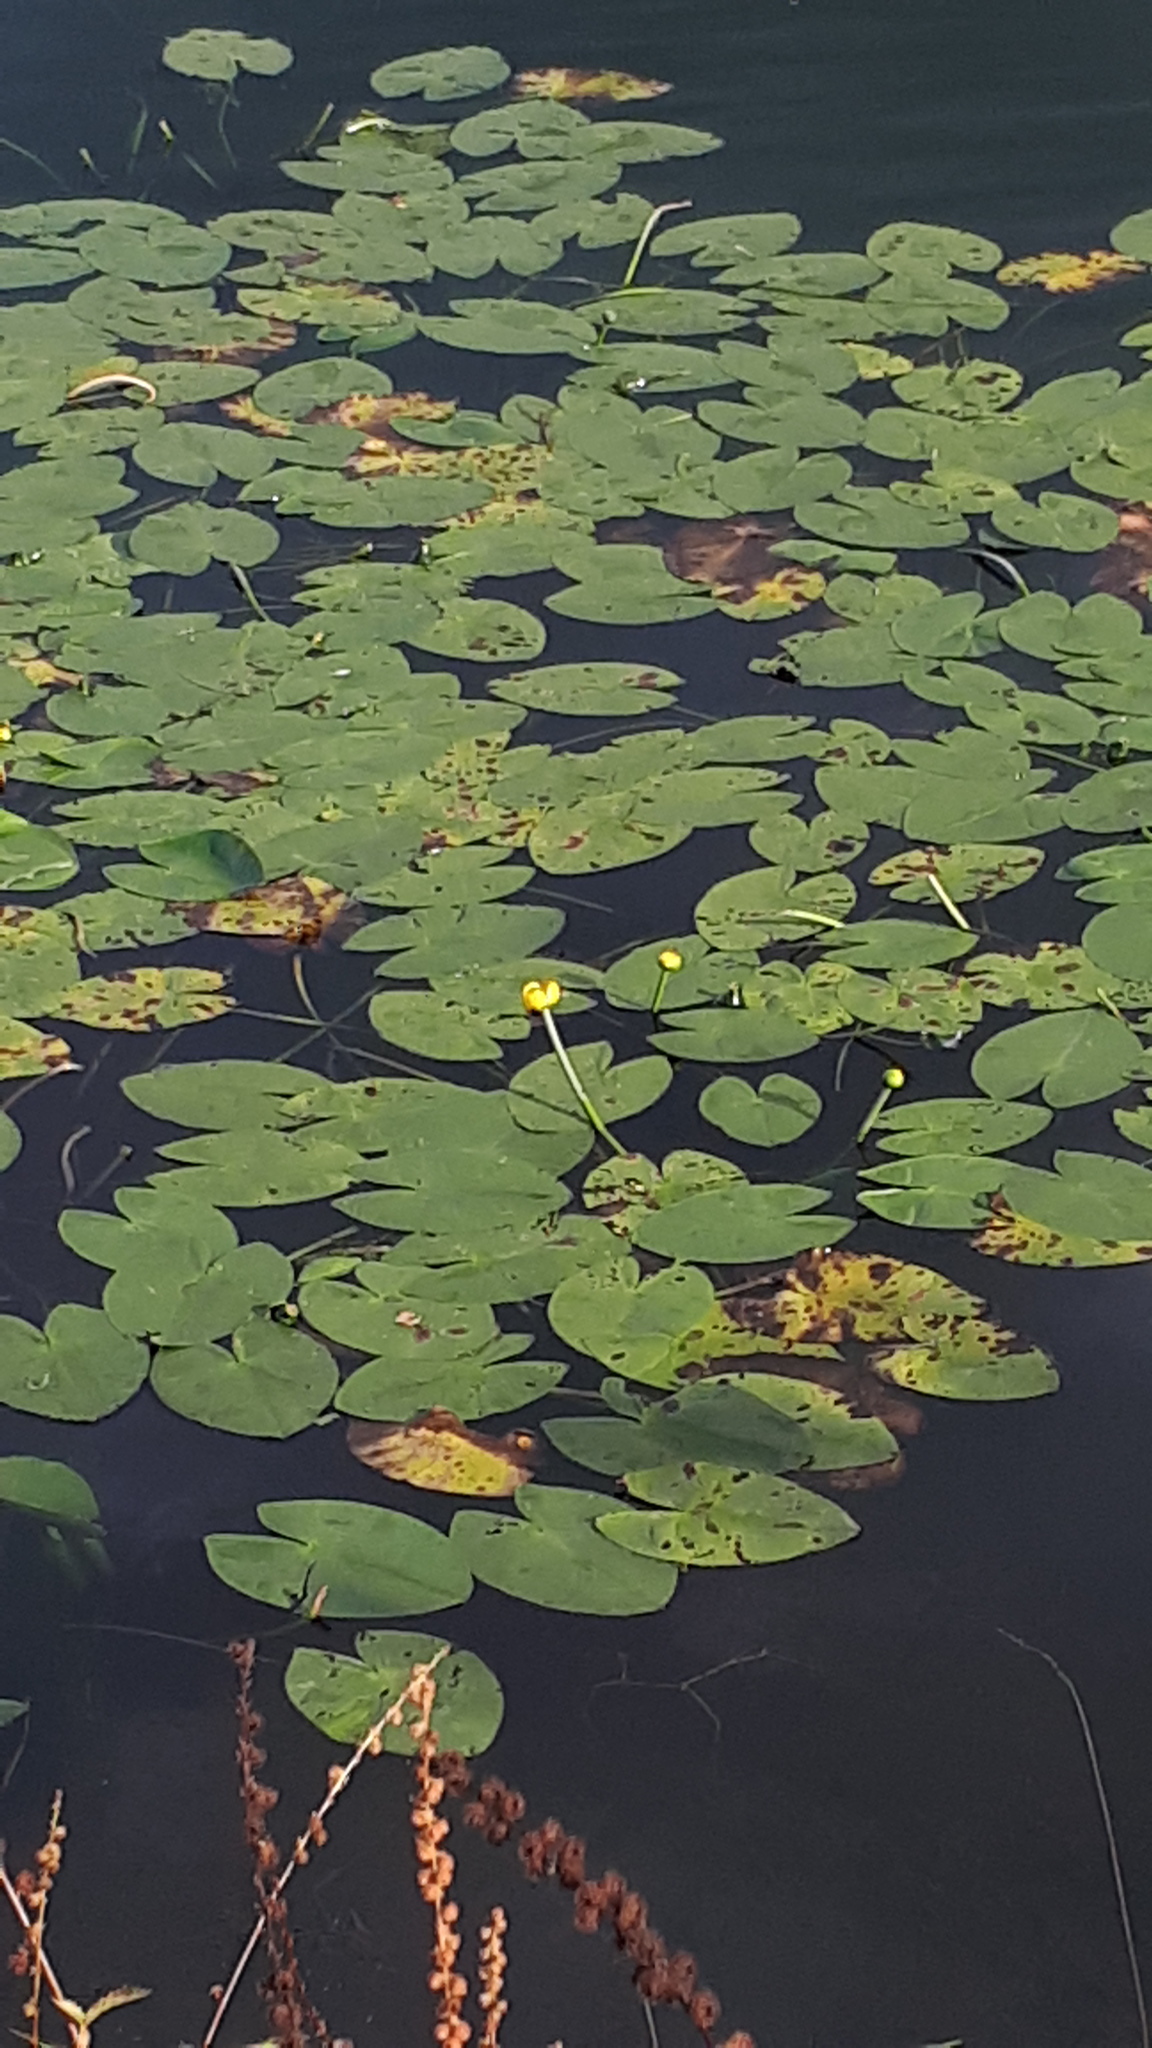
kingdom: Plantae
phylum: Tracheophyta
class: Magnoliopsida
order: Nymphaeales
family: Nymphaeaceae
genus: Nuphar
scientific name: Nuphar lutea
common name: Yellow water-lily
